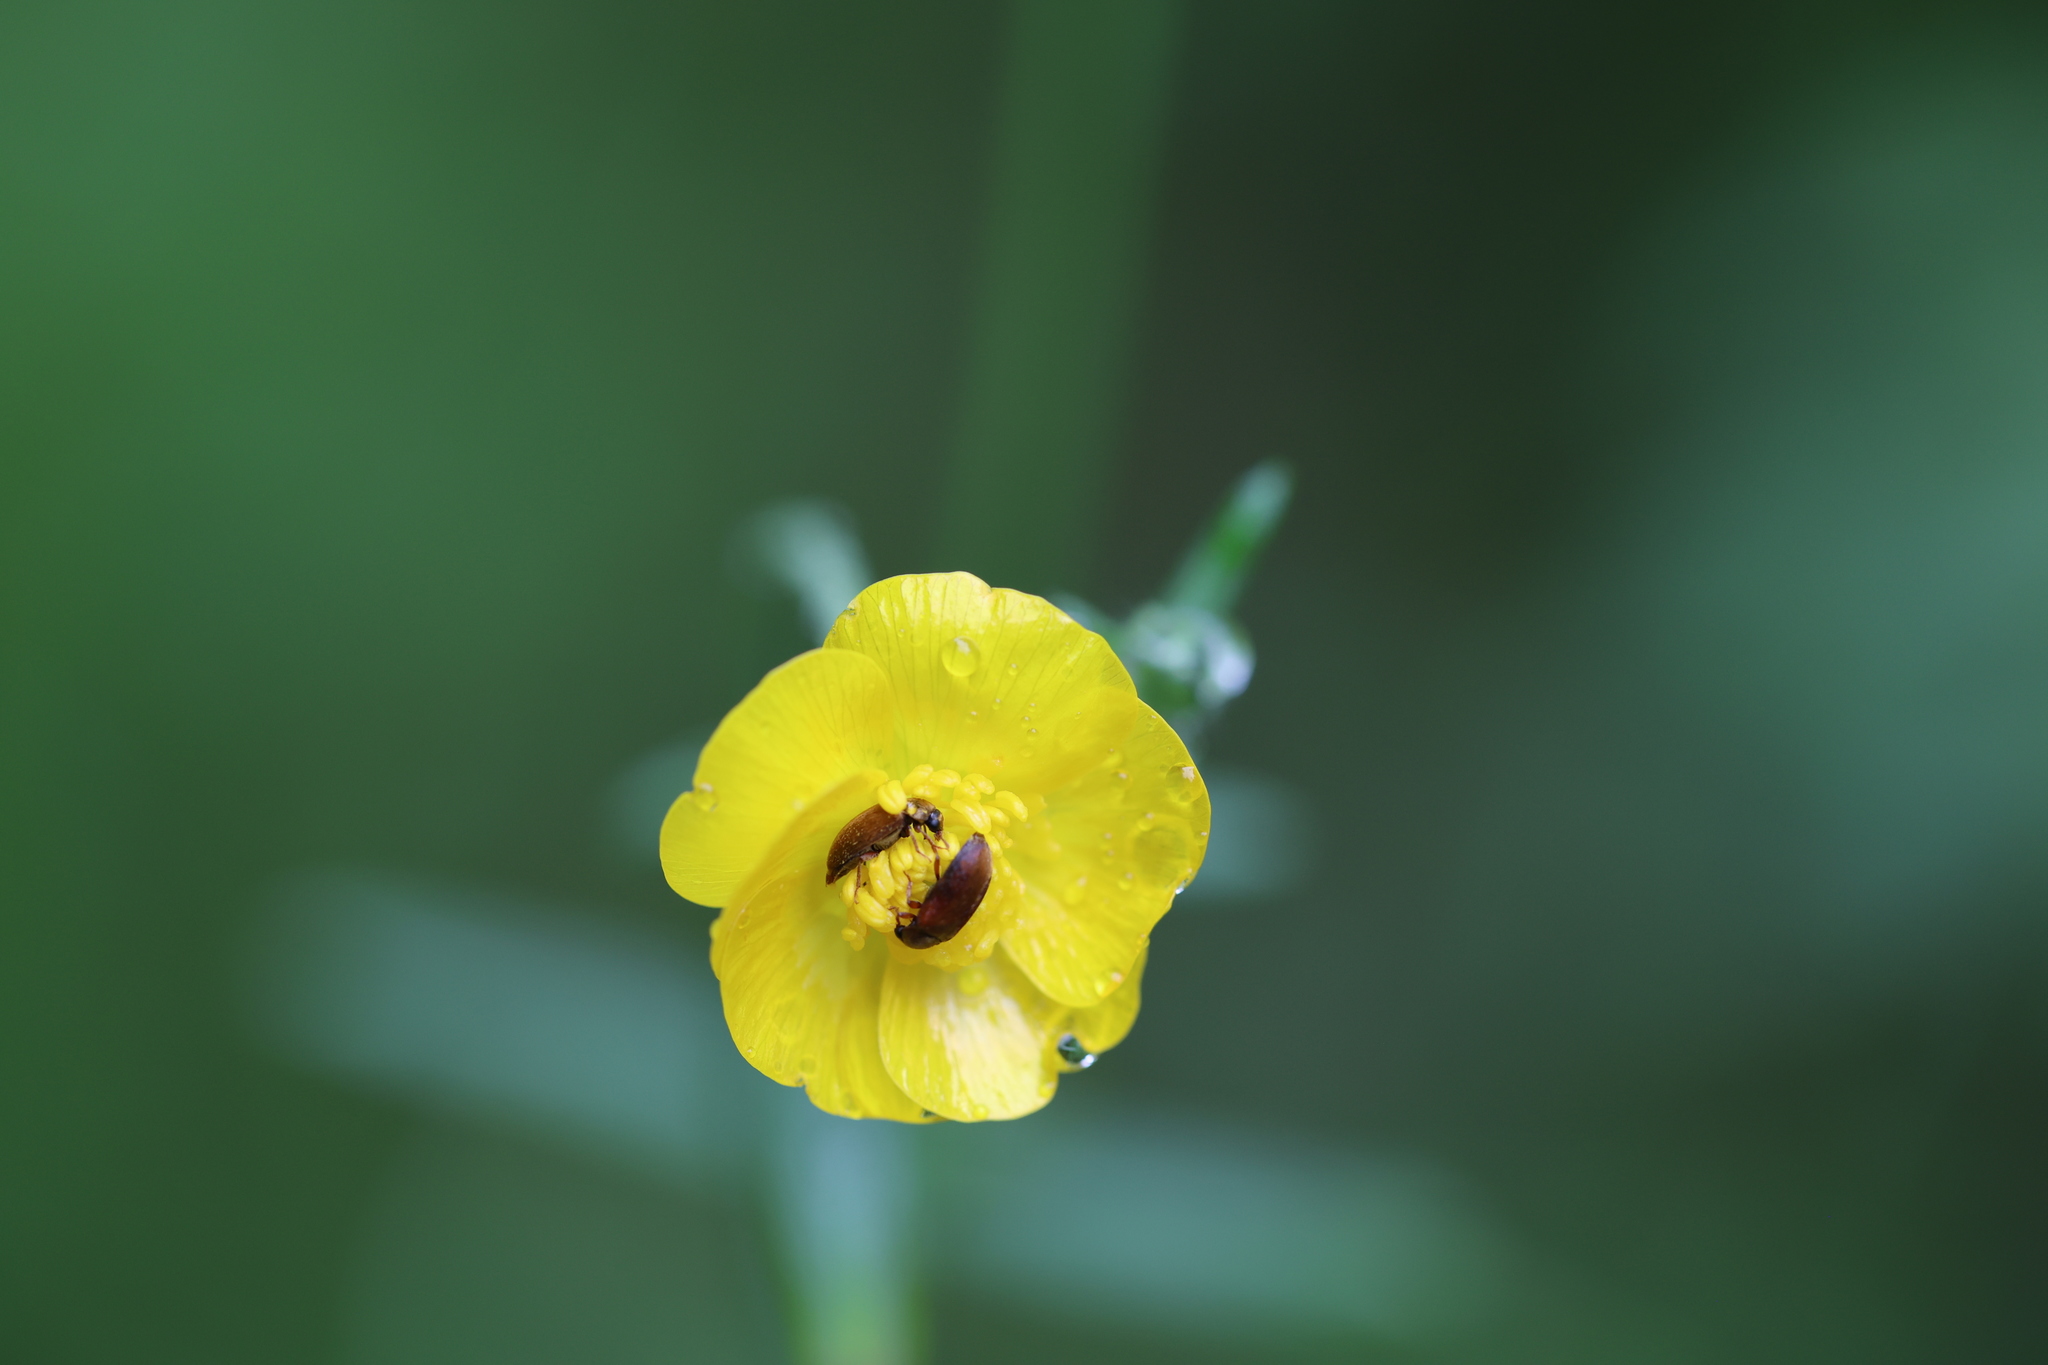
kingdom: Animalia
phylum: Arthropoda
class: Insecta
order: Coleoptera
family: Byturidae
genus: Byturus
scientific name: Byturus ochraceus
